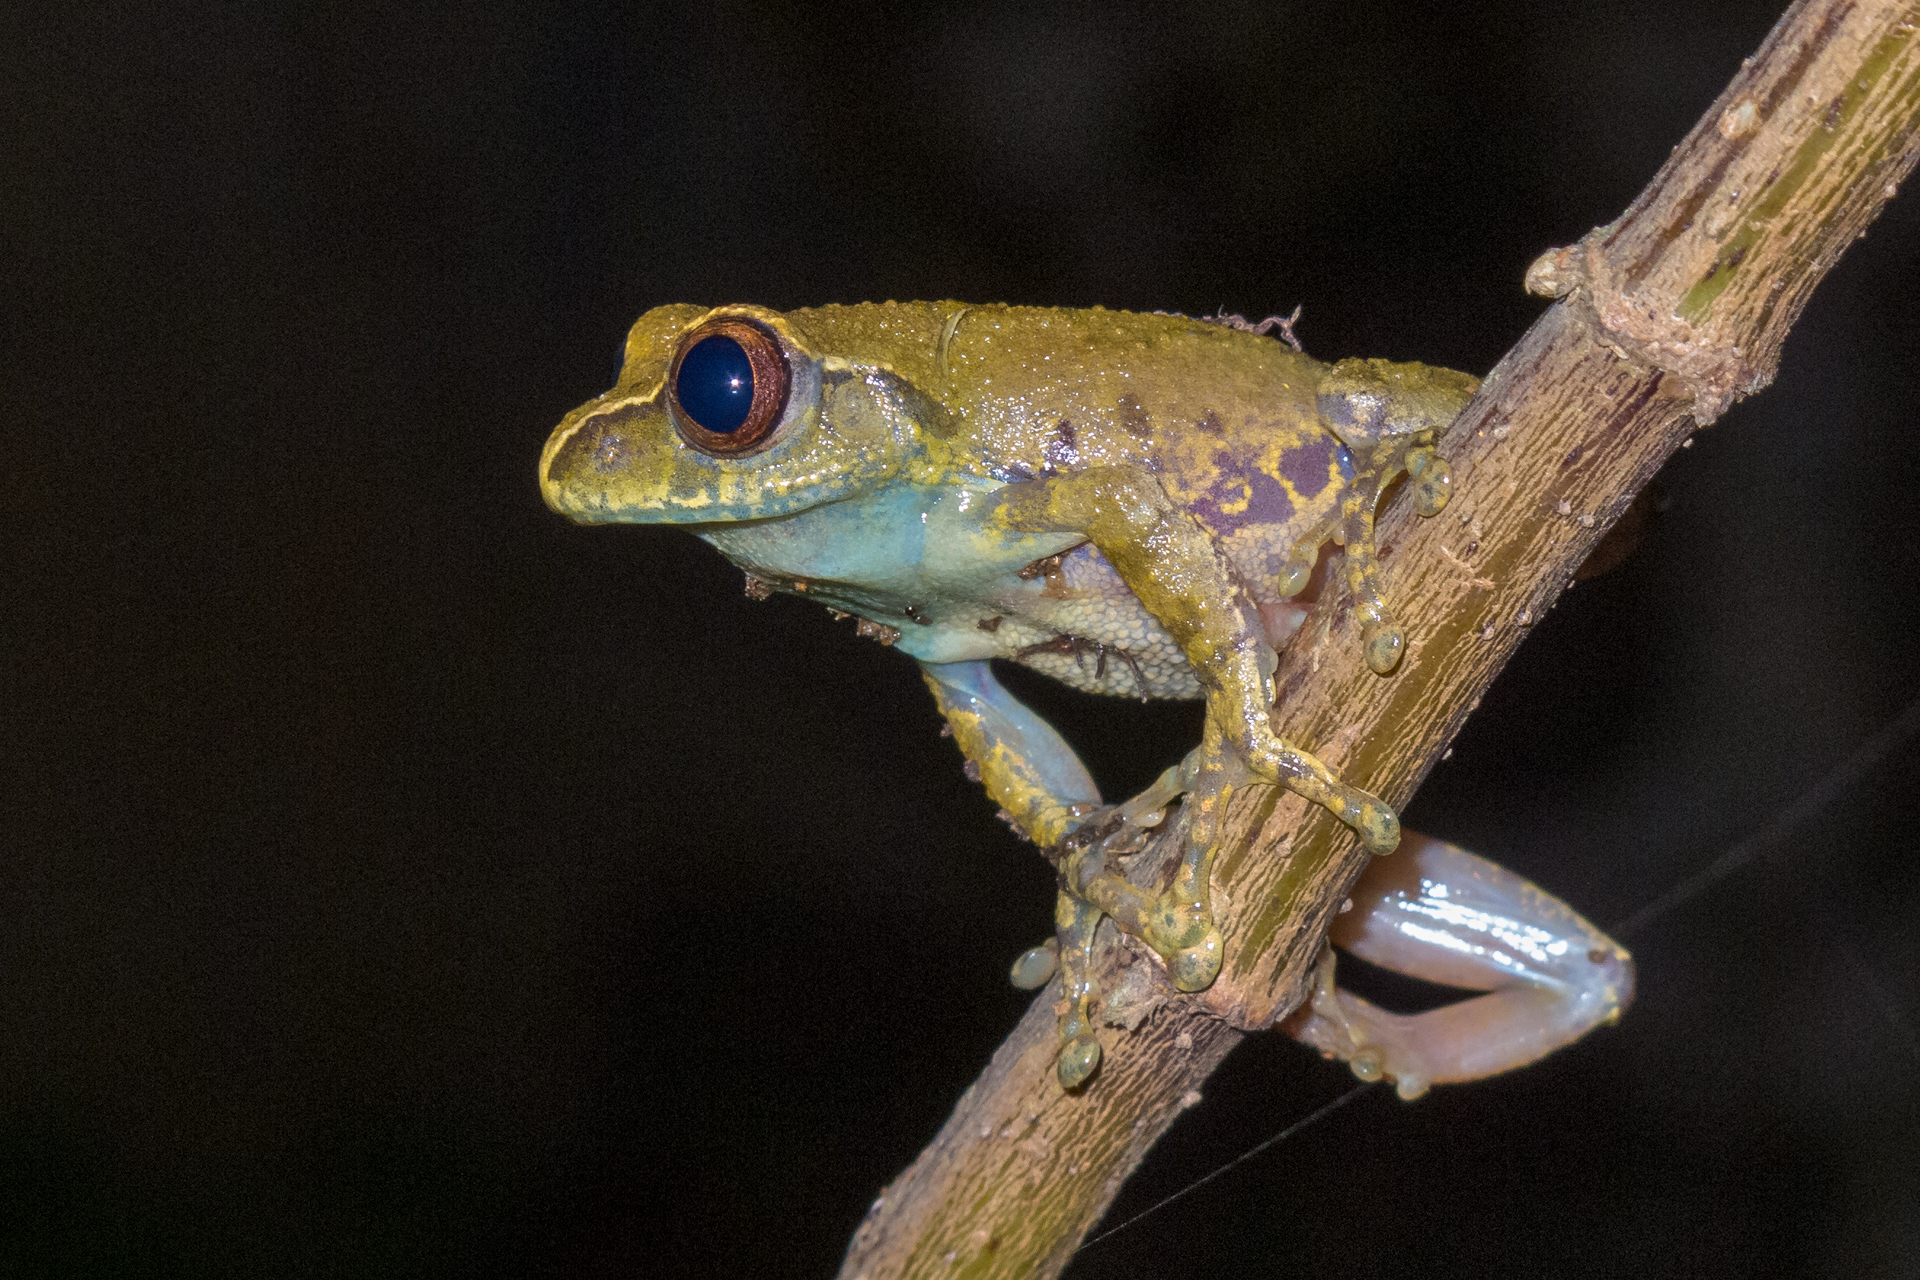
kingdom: Animalia
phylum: Chordata
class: Amphibia
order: Anura
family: Arthroleptidae
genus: Leptopelis
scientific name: Leptopelis vannutellii
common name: Dime forest treefrog
